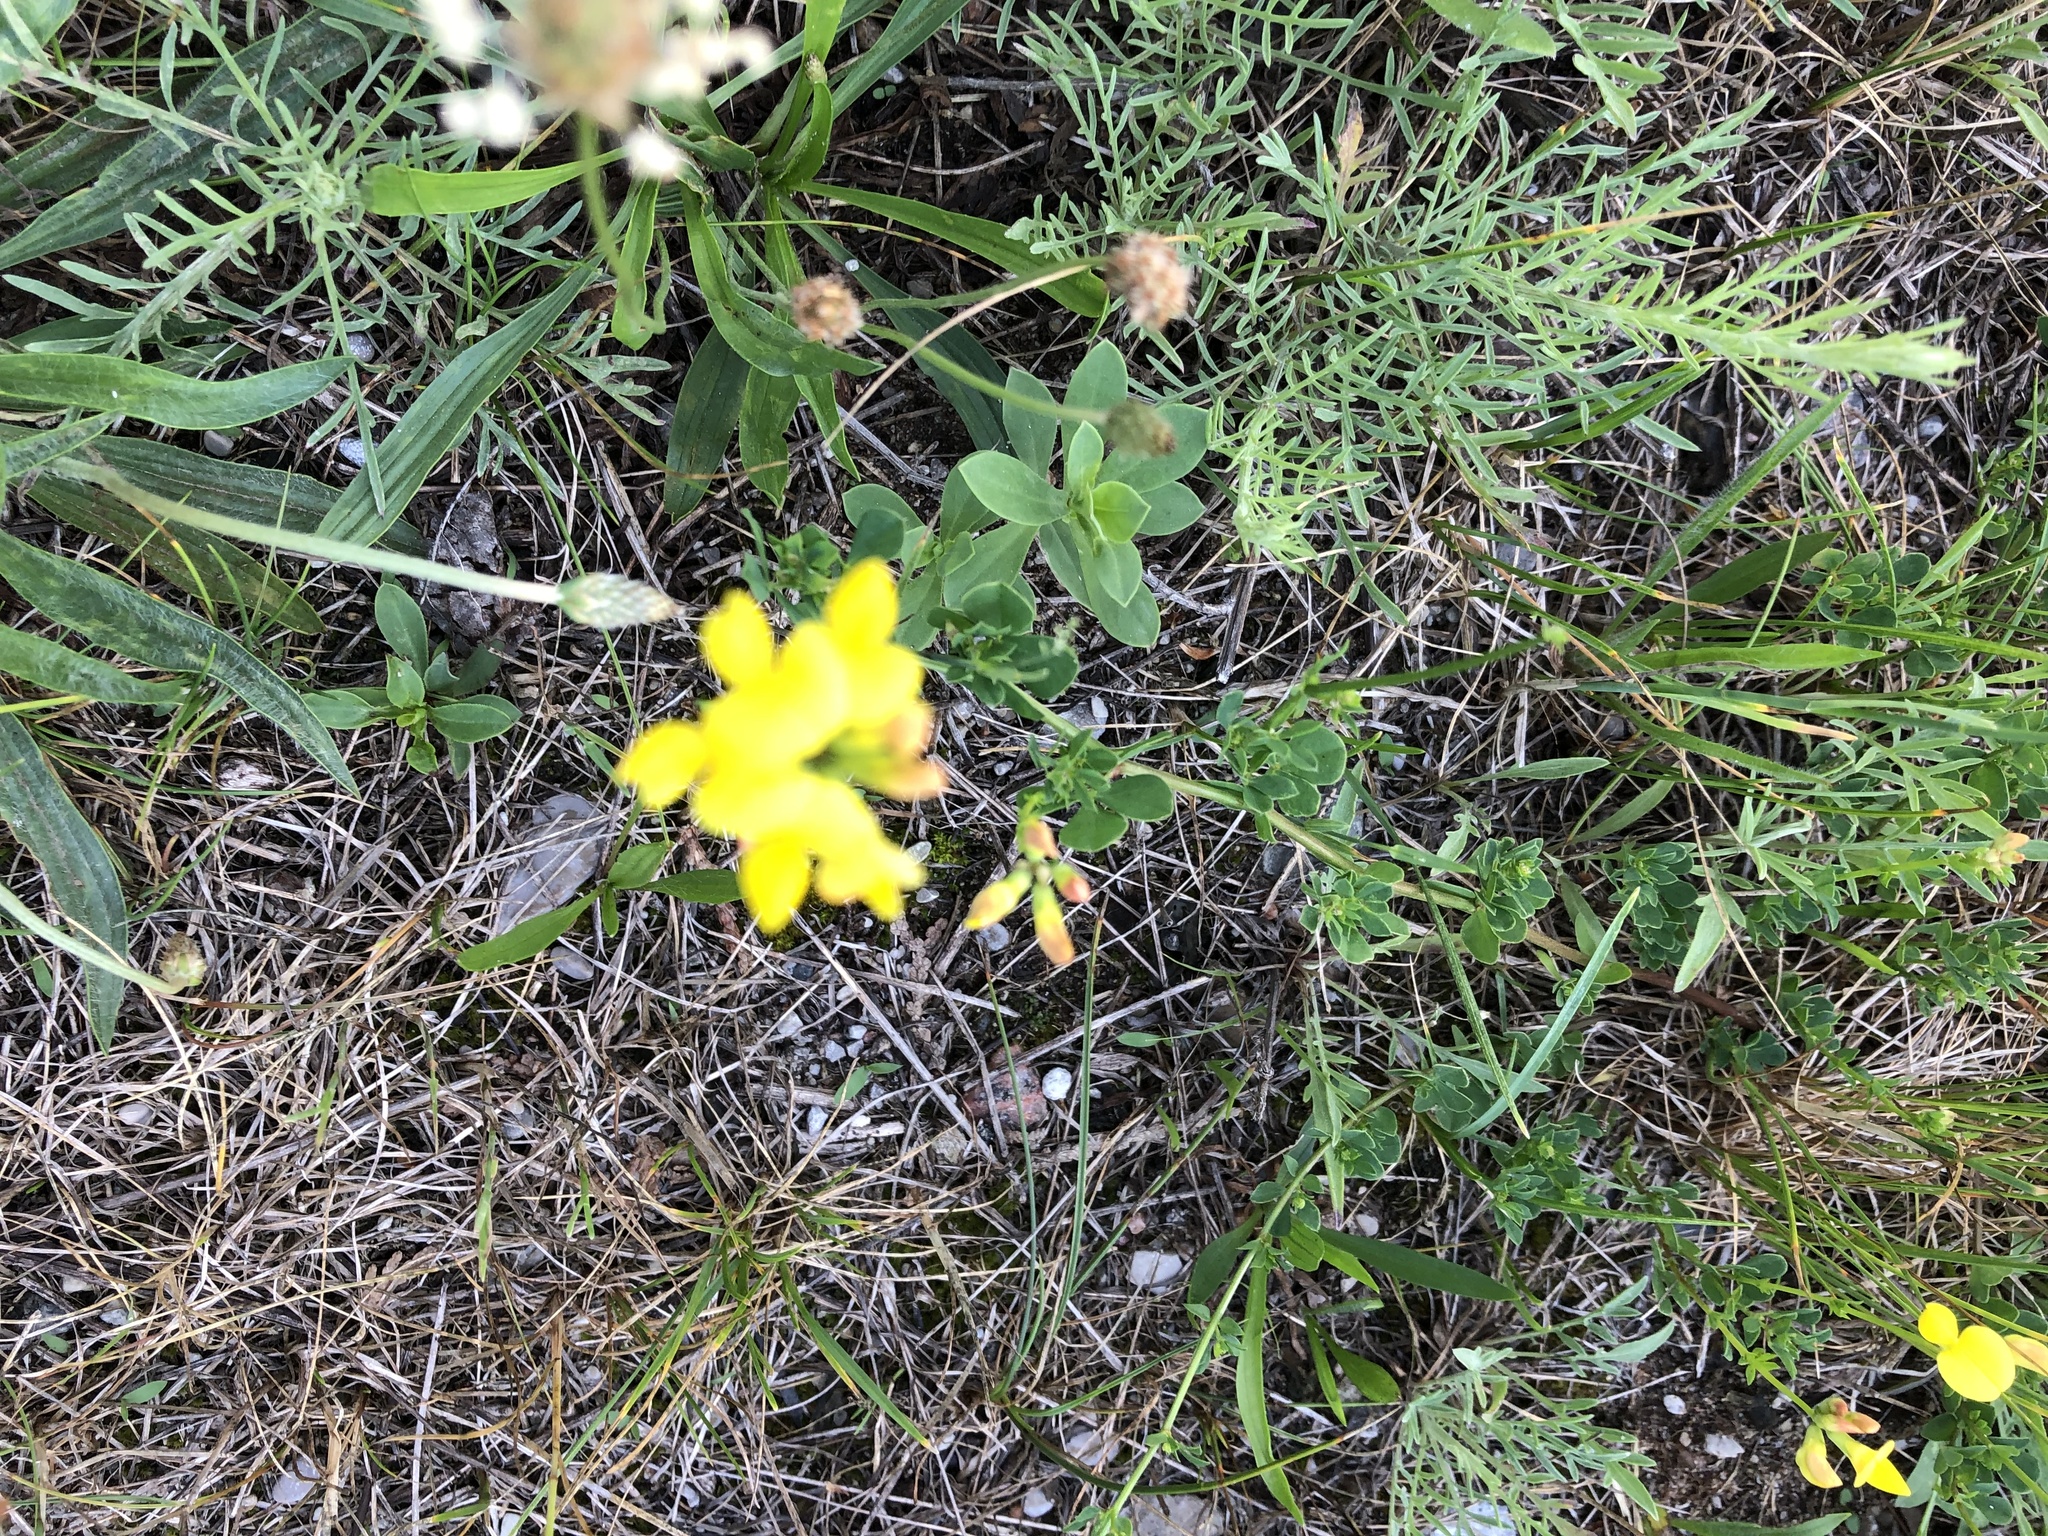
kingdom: Plantae
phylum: Tracheophyta
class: Magnoliopsida
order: Fabales
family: Fabaceae
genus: Lotus
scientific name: Lotus corniculatus
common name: Common bird's-foot-trefoil
